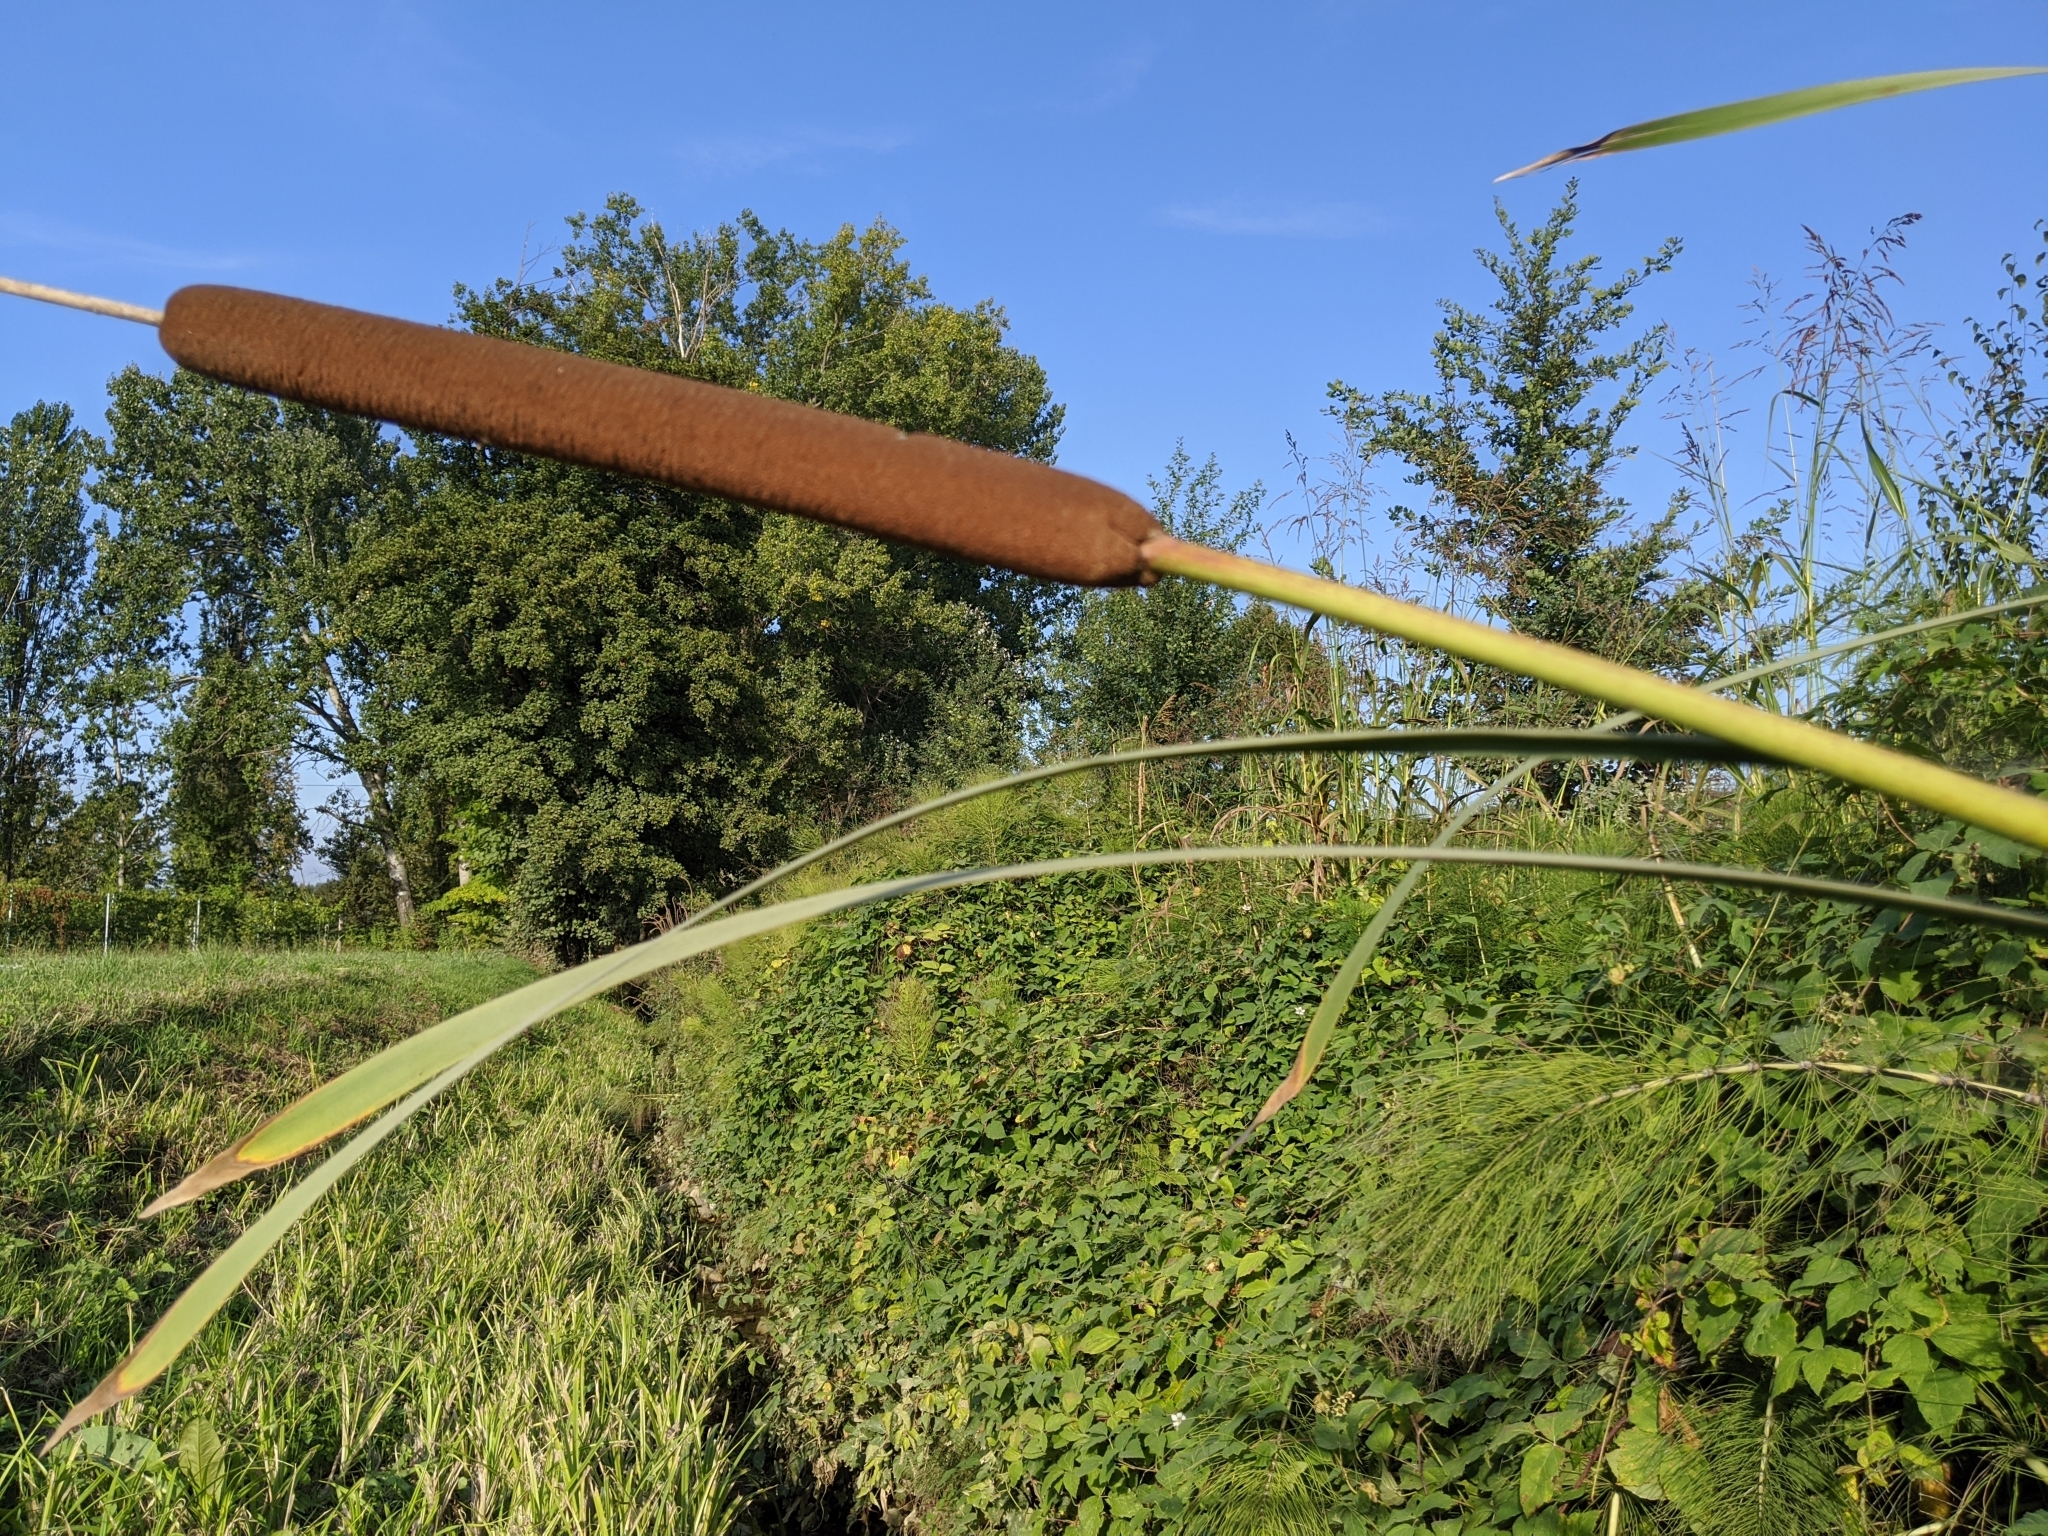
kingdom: Plantae
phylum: Tracheophyta
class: Liliopsida
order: Poales
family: Typhaceae
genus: Typha
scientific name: Typha angustifolia
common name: Lesser bulrush
